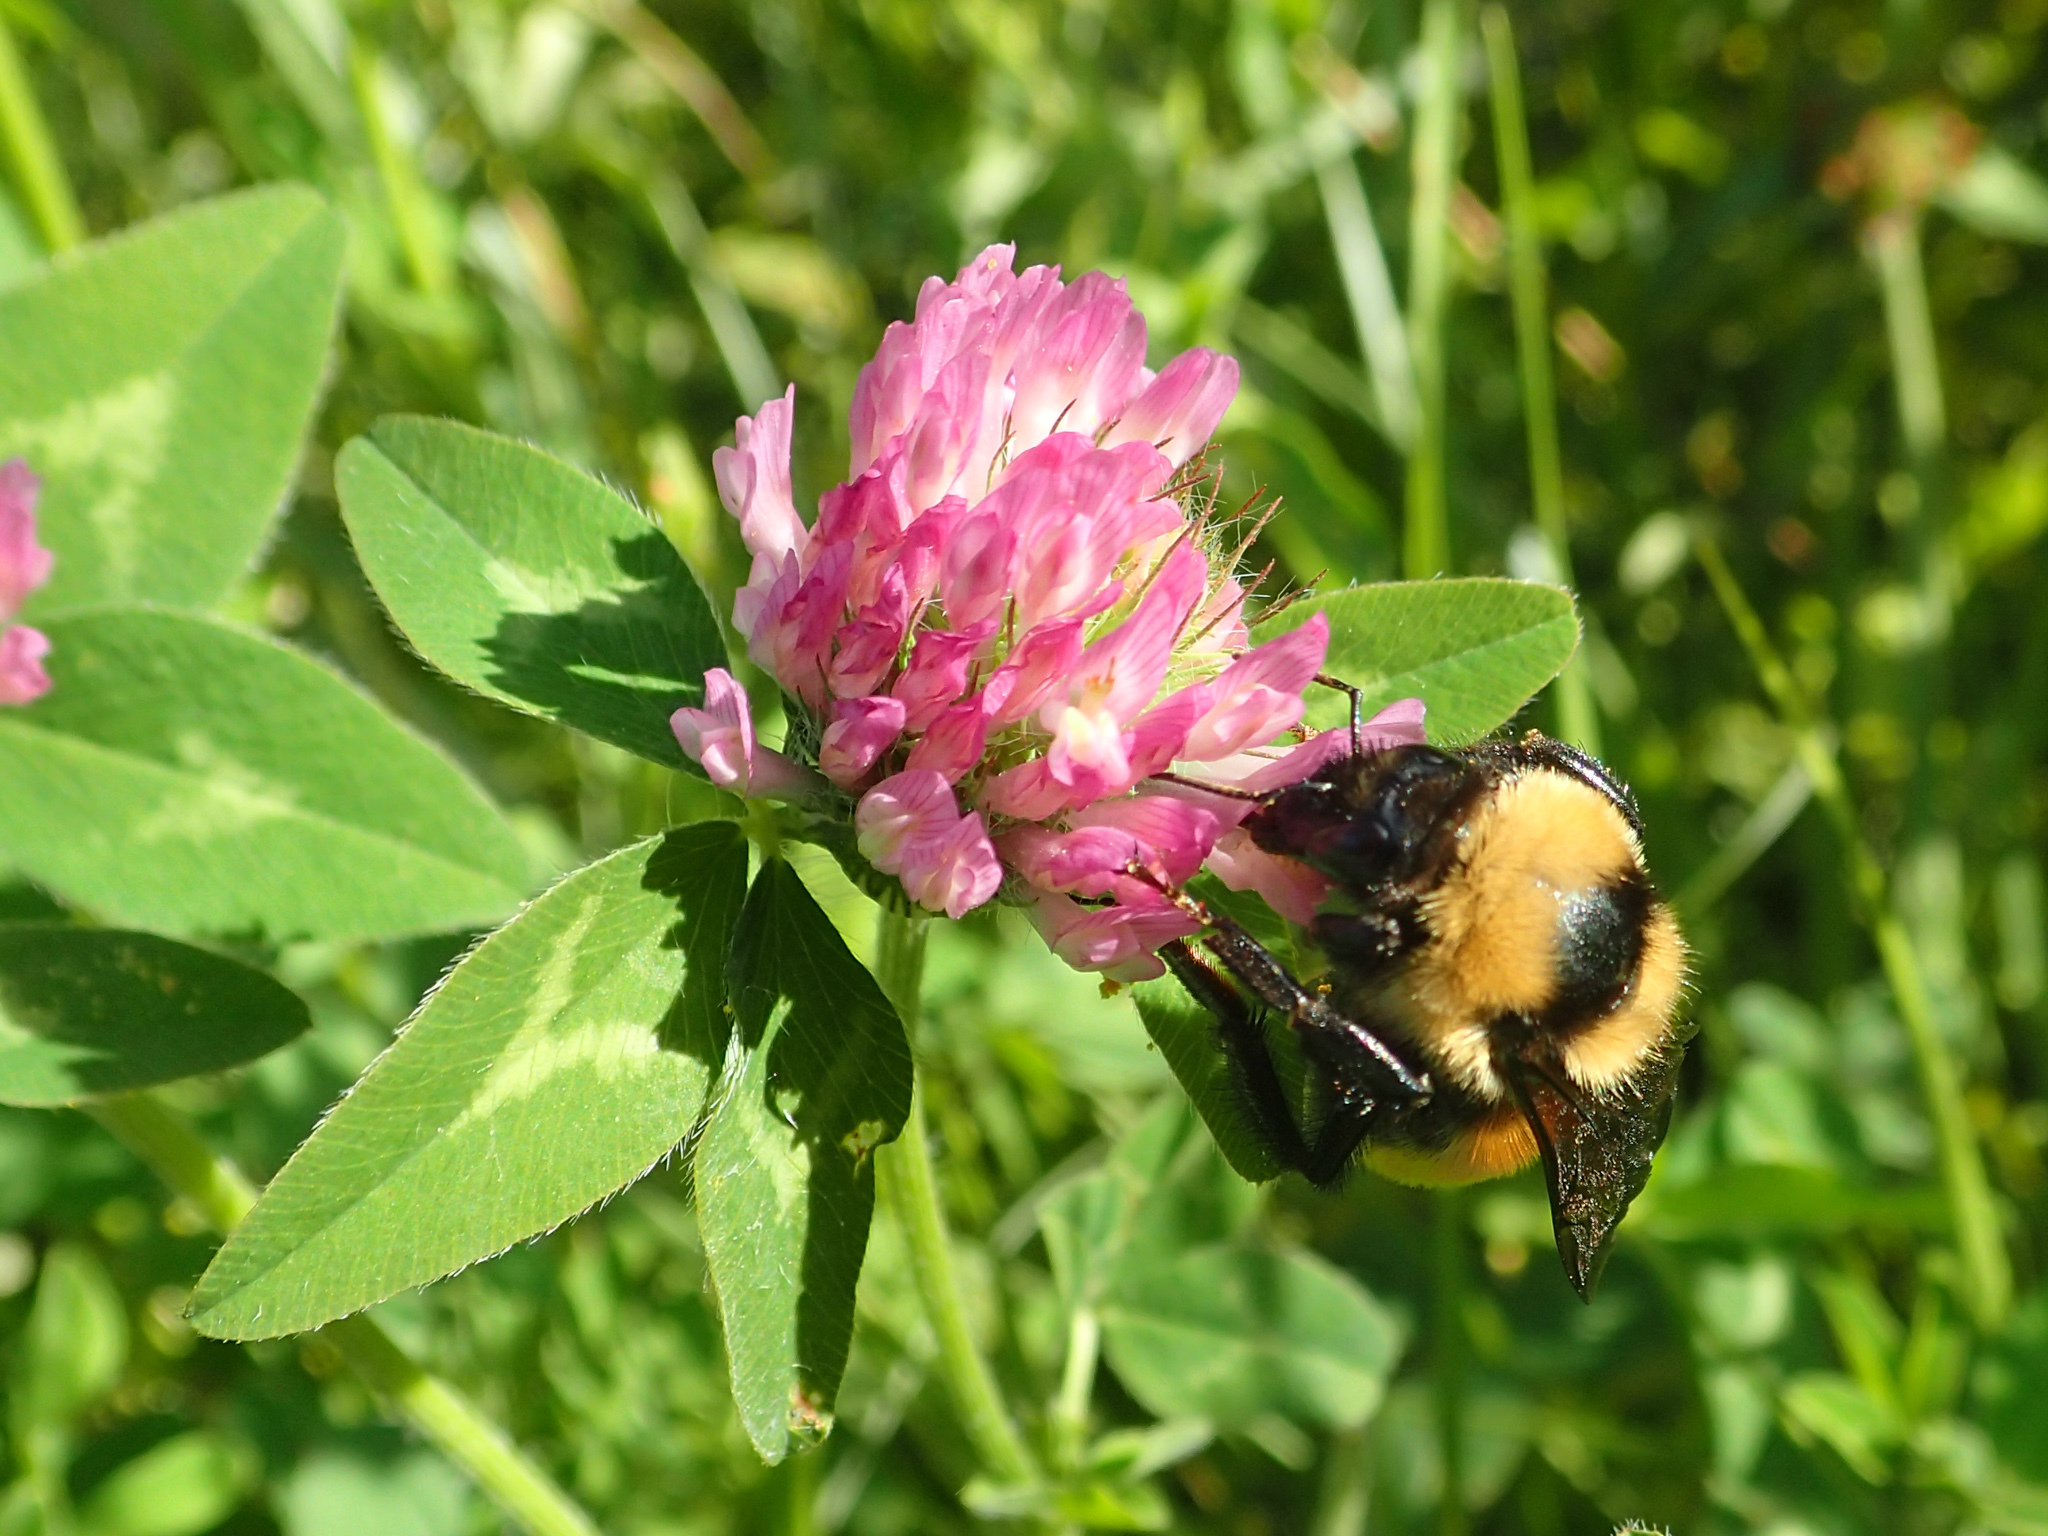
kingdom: Animalia
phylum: Arthropoda
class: Insecta
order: Hymenoptera
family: Apidae
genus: Bombus
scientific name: Bombus fervidus
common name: Yellow bumble bee
